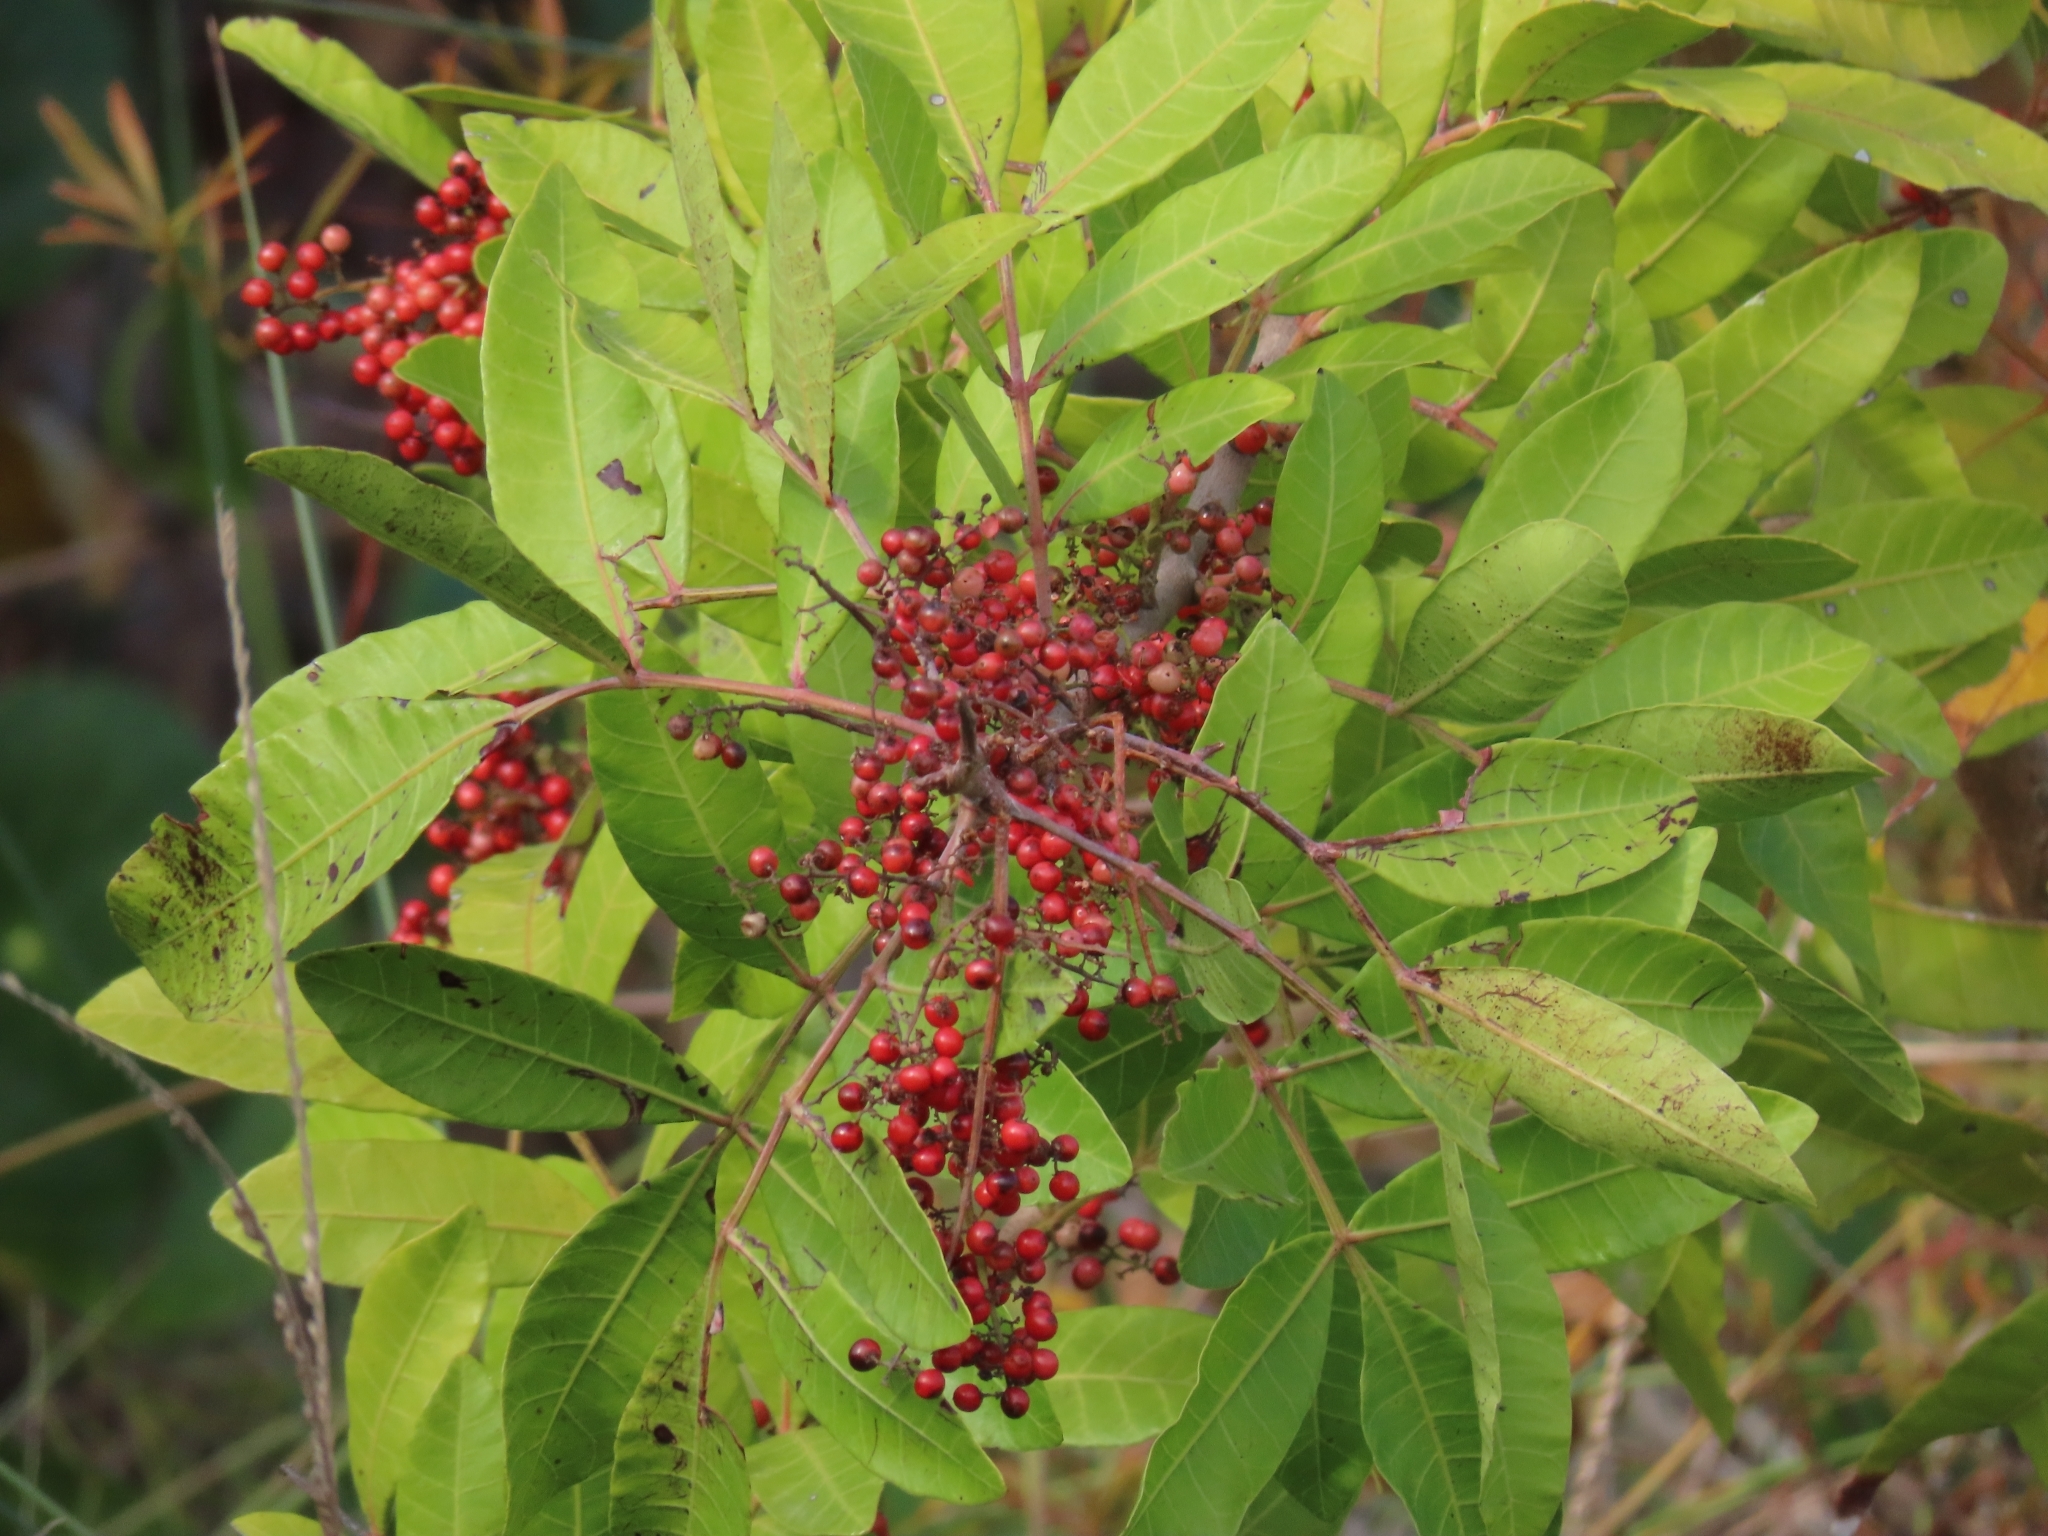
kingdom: Plantae
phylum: Tracheophyta
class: Magnoliopsida
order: Sapindales
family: Anacardiaceae
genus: Schinus
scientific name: Schinus terebinthifolia
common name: Brazilian peppertree
